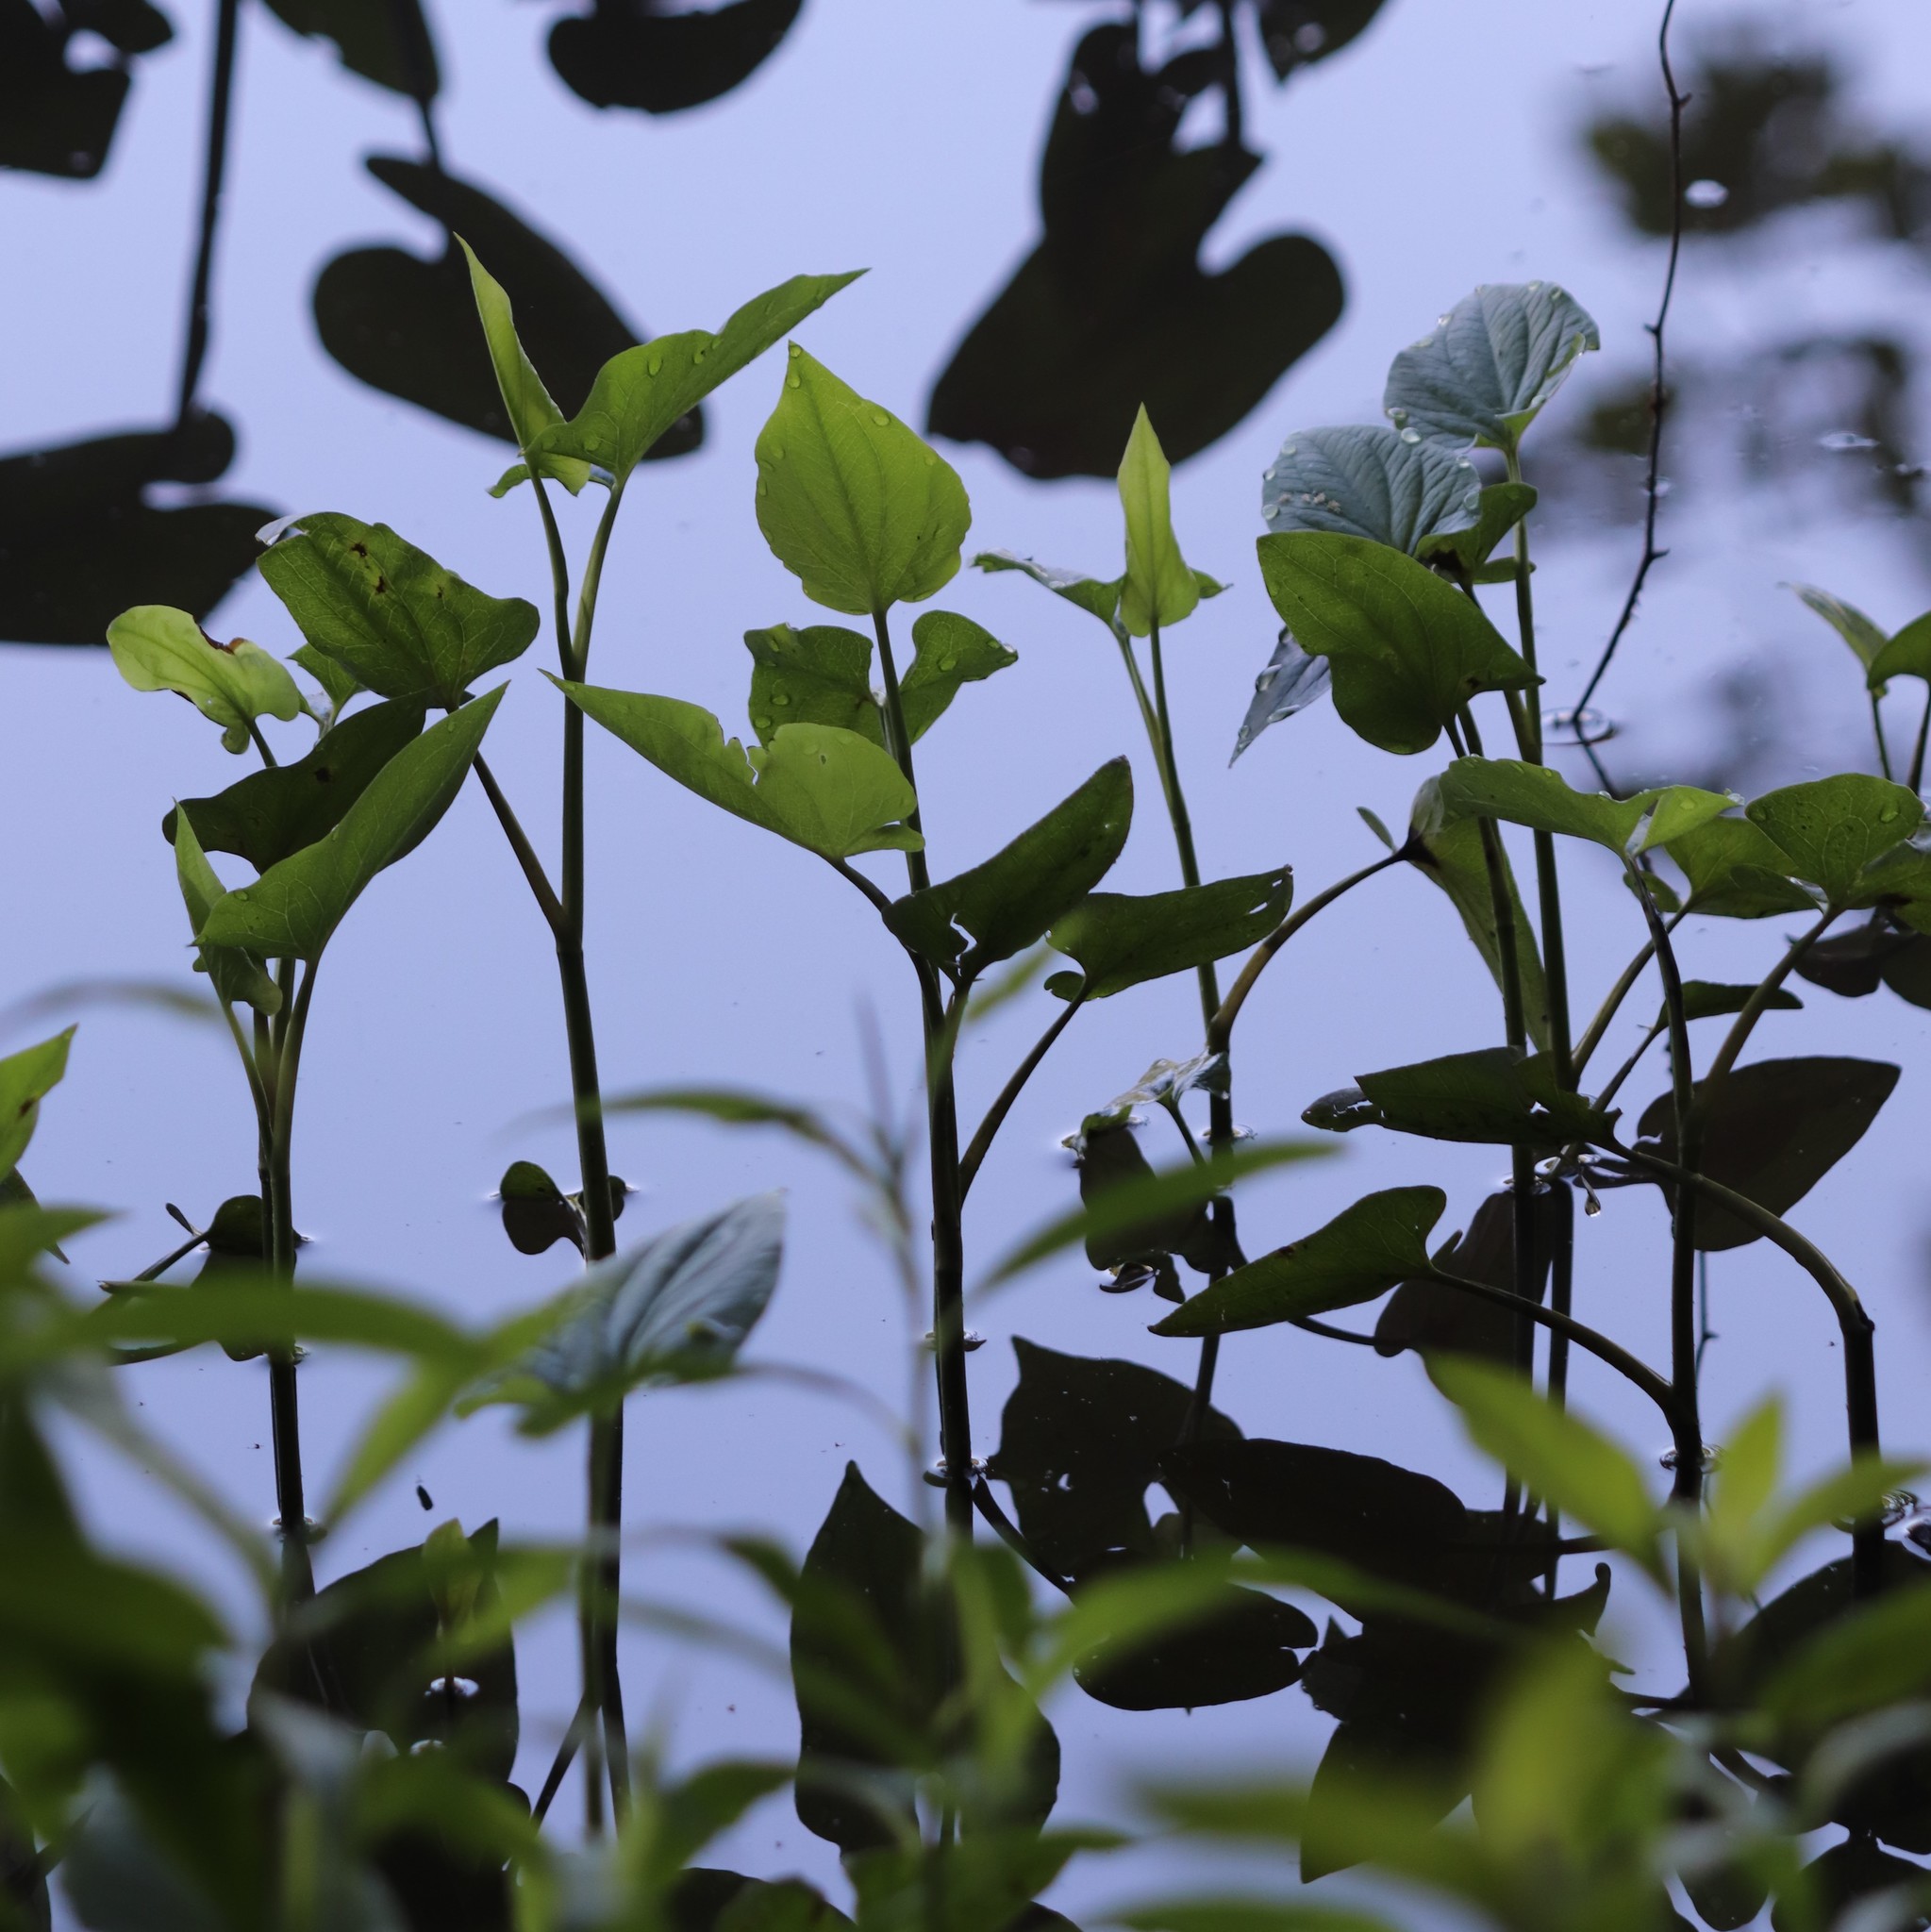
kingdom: Plantae
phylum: Tracheophyta
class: Magnoliopsida
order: Piperales
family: Saururaceae
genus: Saururus
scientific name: Saururus cernuus
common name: Lizard's-tail
